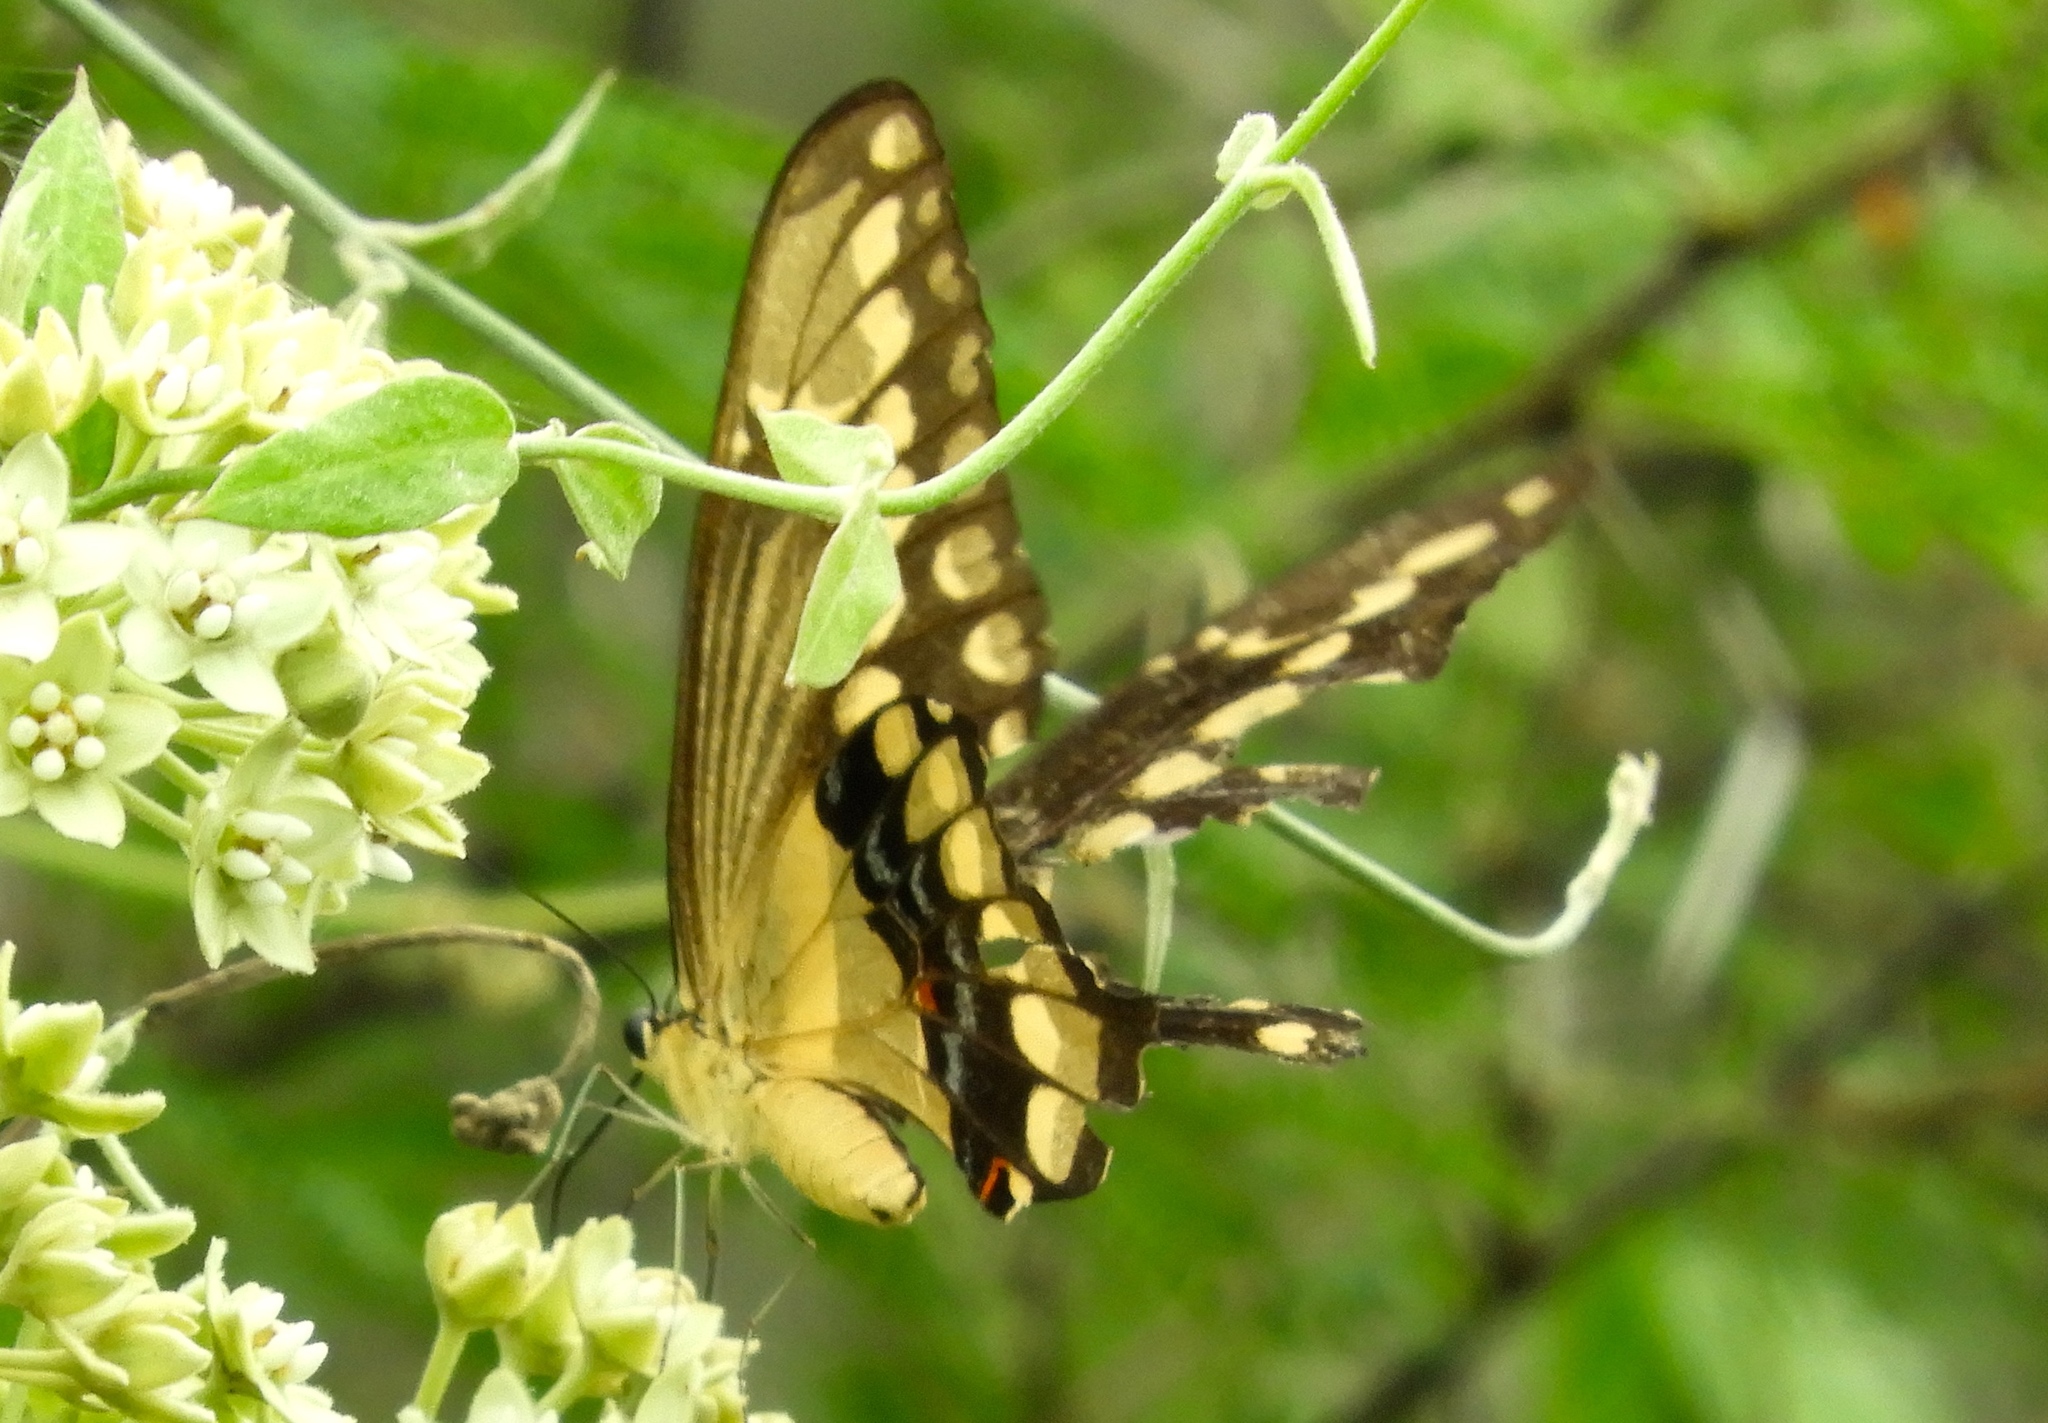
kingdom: Animalia
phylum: Arthropoda
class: Insecta
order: Lepidoptera
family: Papilionidae
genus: Papilio
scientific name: Papilio rumiko
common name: Western giant swallowtail
